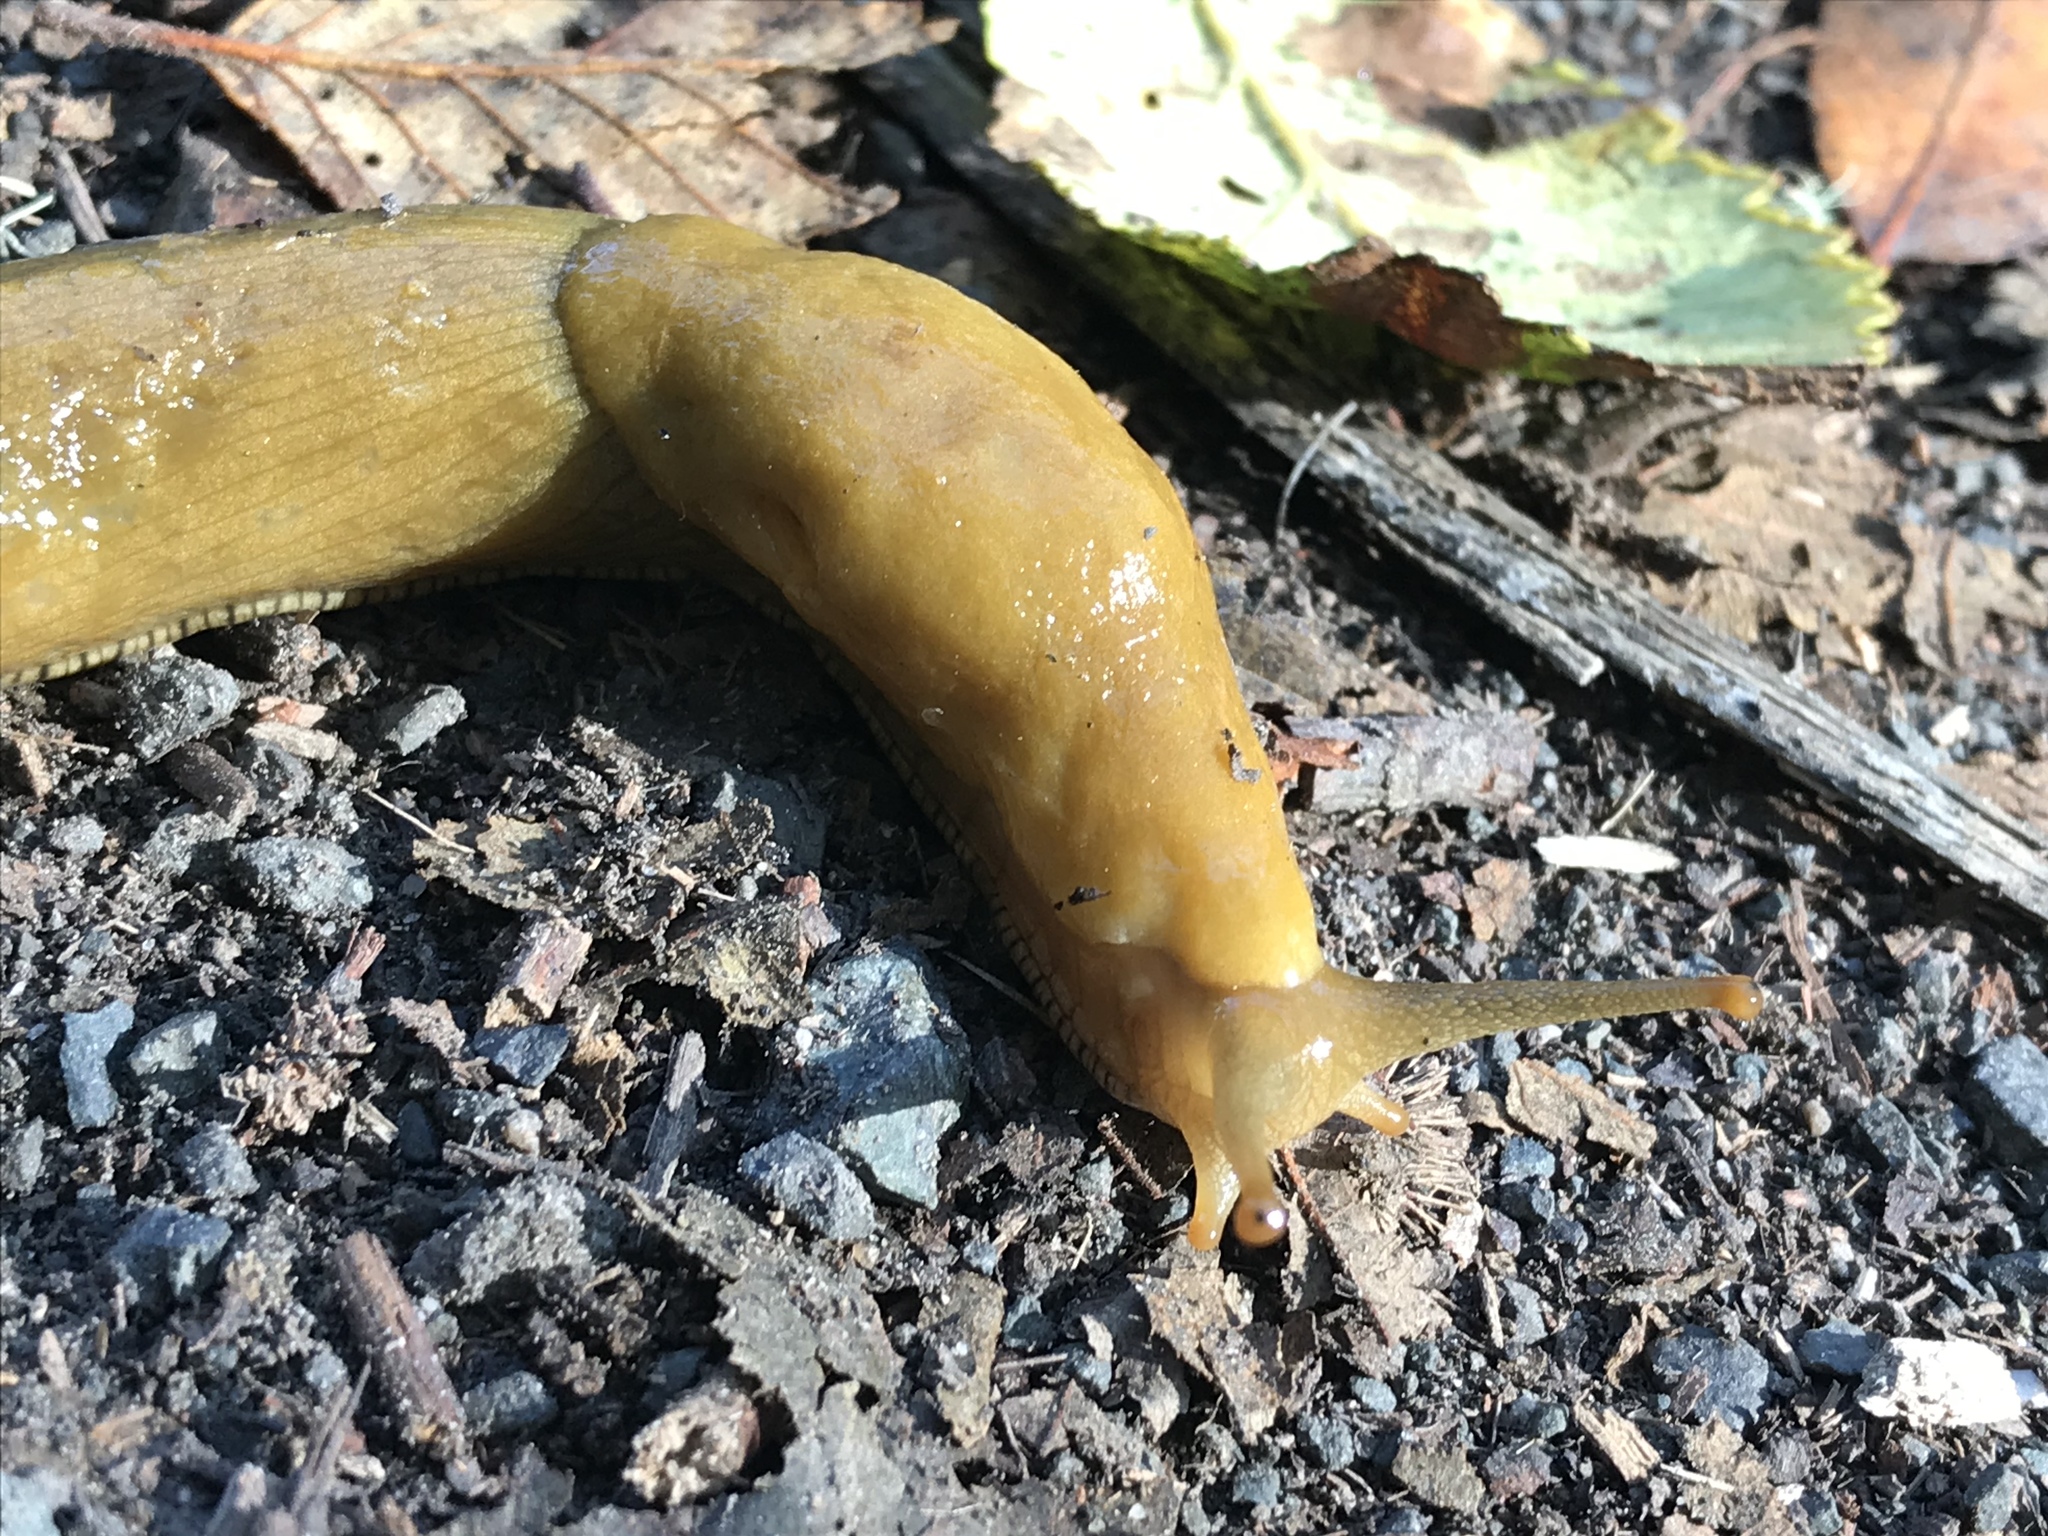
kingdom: Animalia
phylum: Mollusca
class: Gastropoda
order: Stylommatophora
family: Ariolimacidae
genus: Ariolimax
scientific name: Ariolimax buttoni
